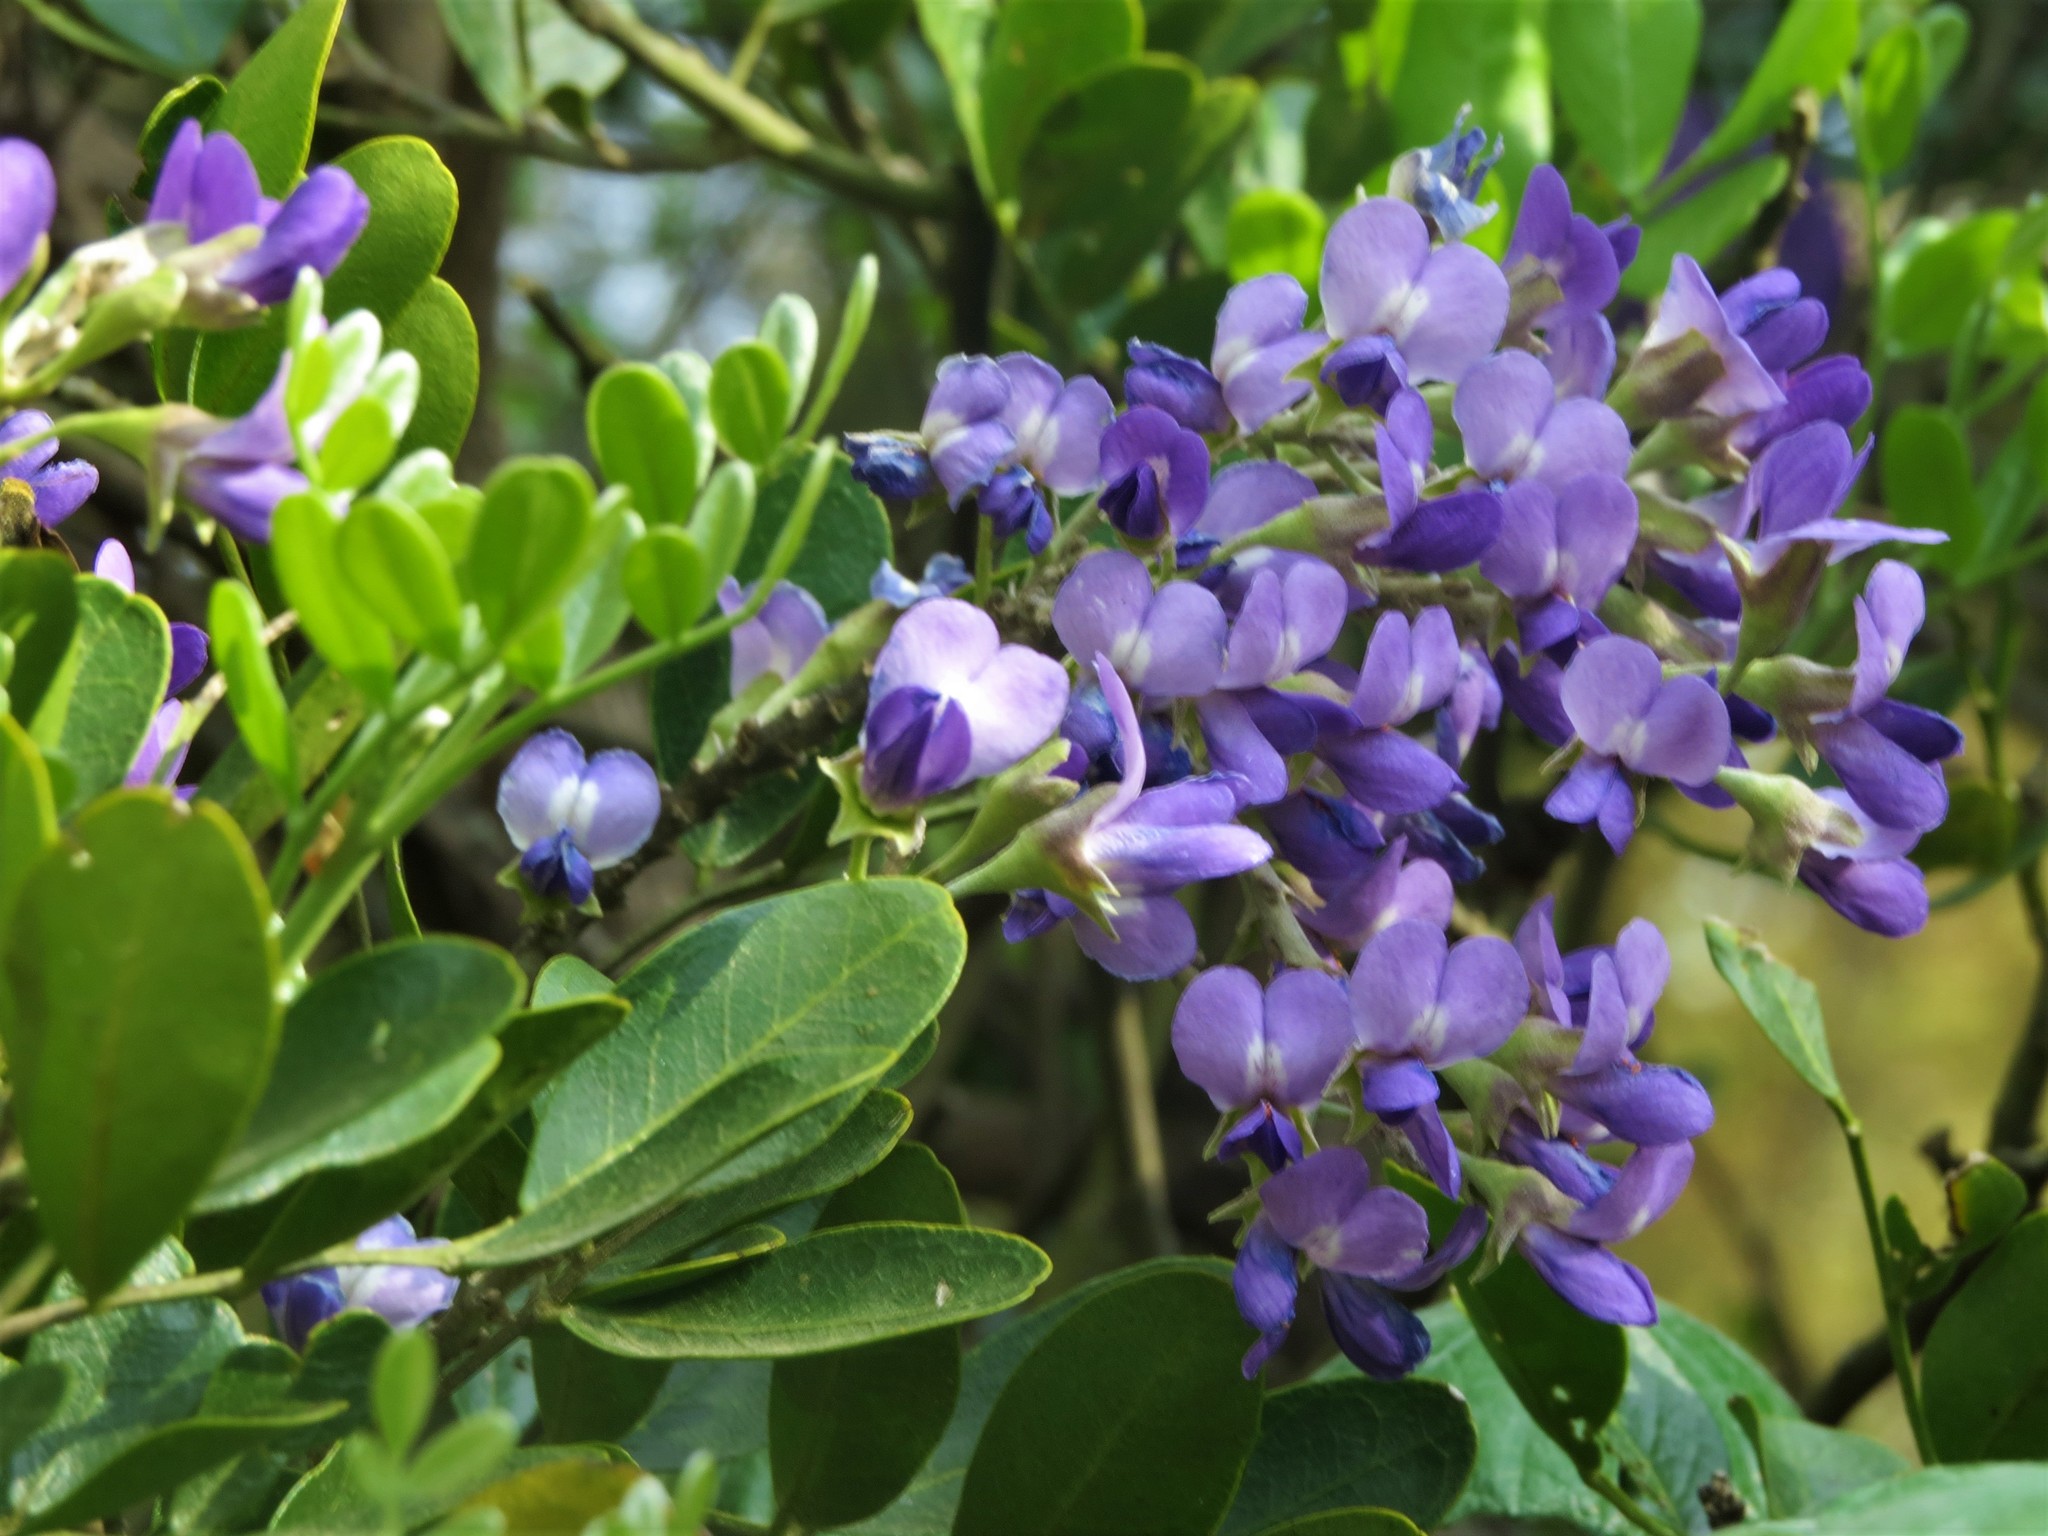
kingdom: Plantae
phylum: Tracheophyta
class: Magnoliopsida
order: Fabales
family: Fabaceae
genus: Dermatophyllum
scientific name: Dermatophyllum secundiflorum
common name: Texas-mountain-laurel
